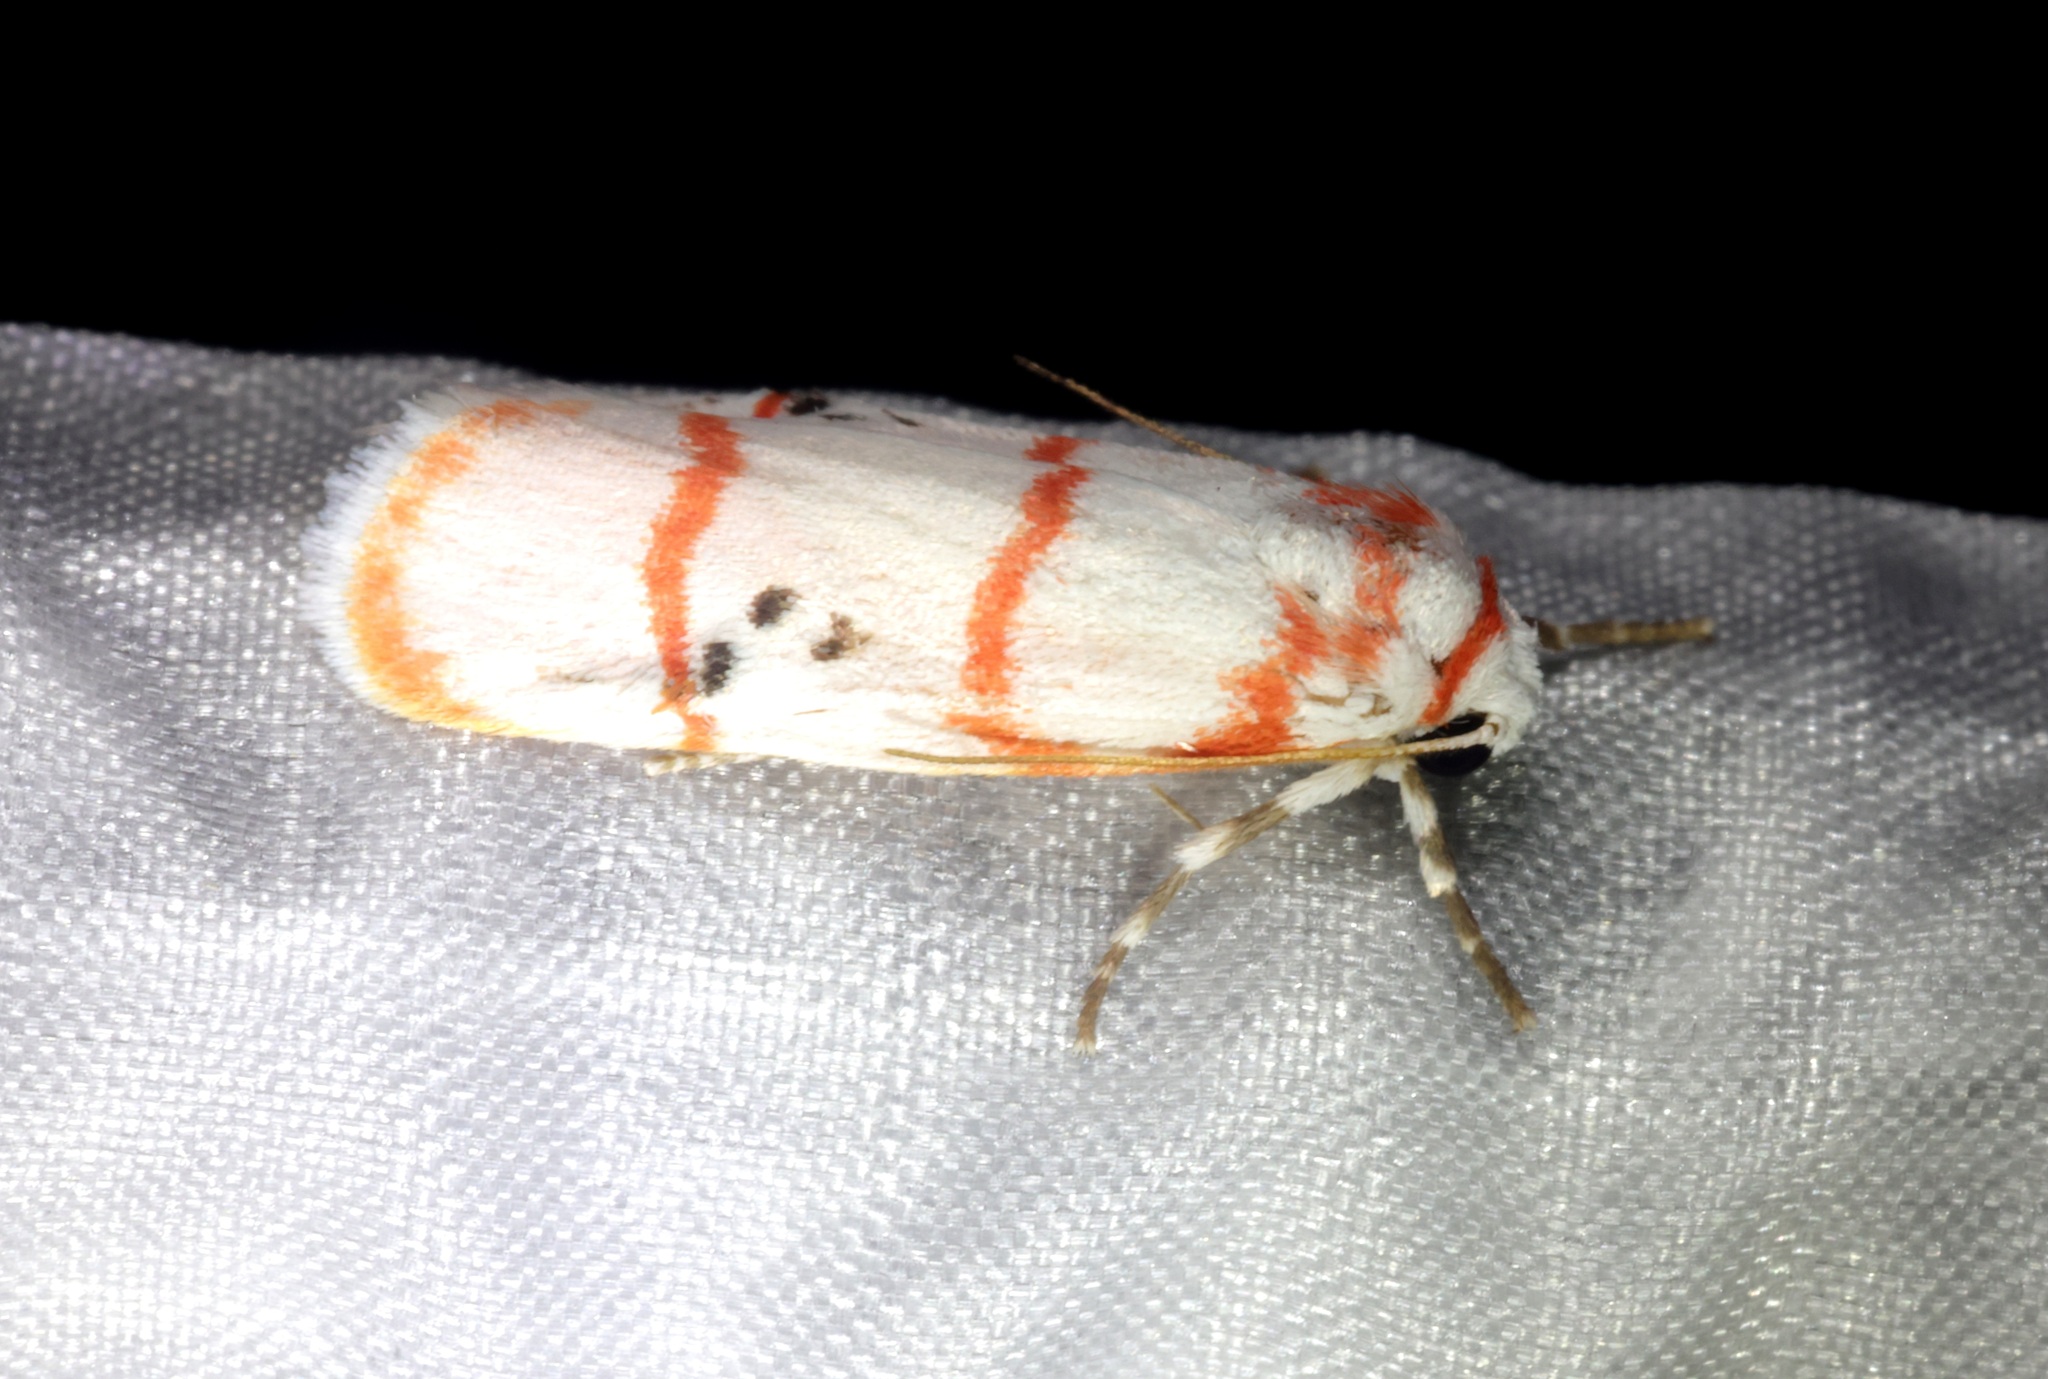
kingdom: Animalia
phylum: Arthropoda
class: Insecta
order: Lepidoptera
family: Erebidae
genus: Cyana
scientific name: Cyana gelida
